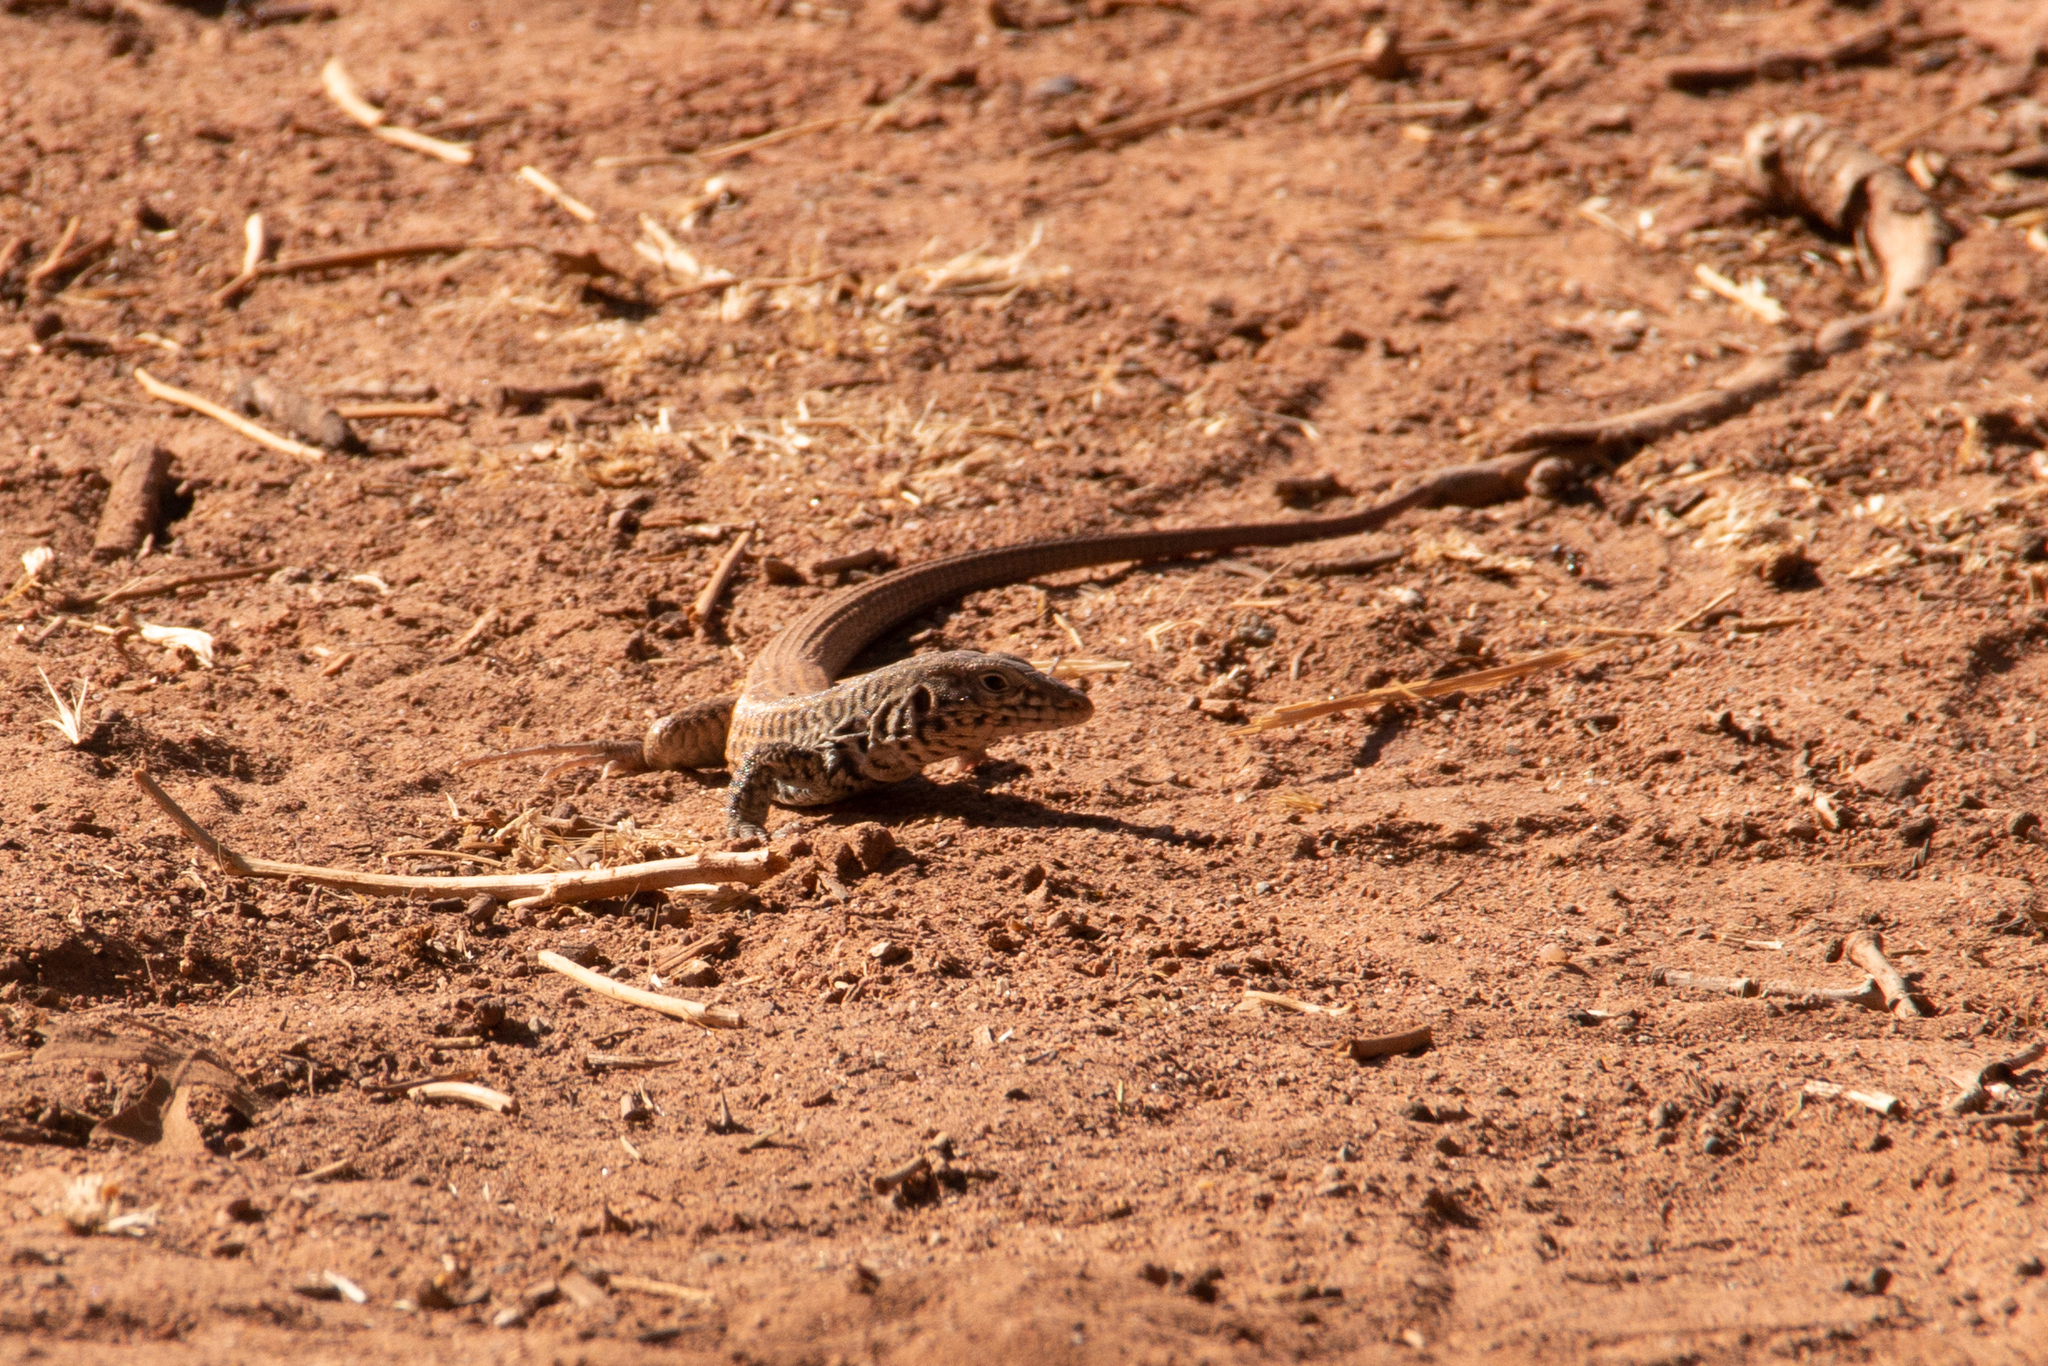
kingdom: Animalia
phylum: Chordata
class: Squamata
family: Teiidae
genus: Aspidoscelis
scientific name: Aspidoscelis tigris
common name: Tiger whiptail
